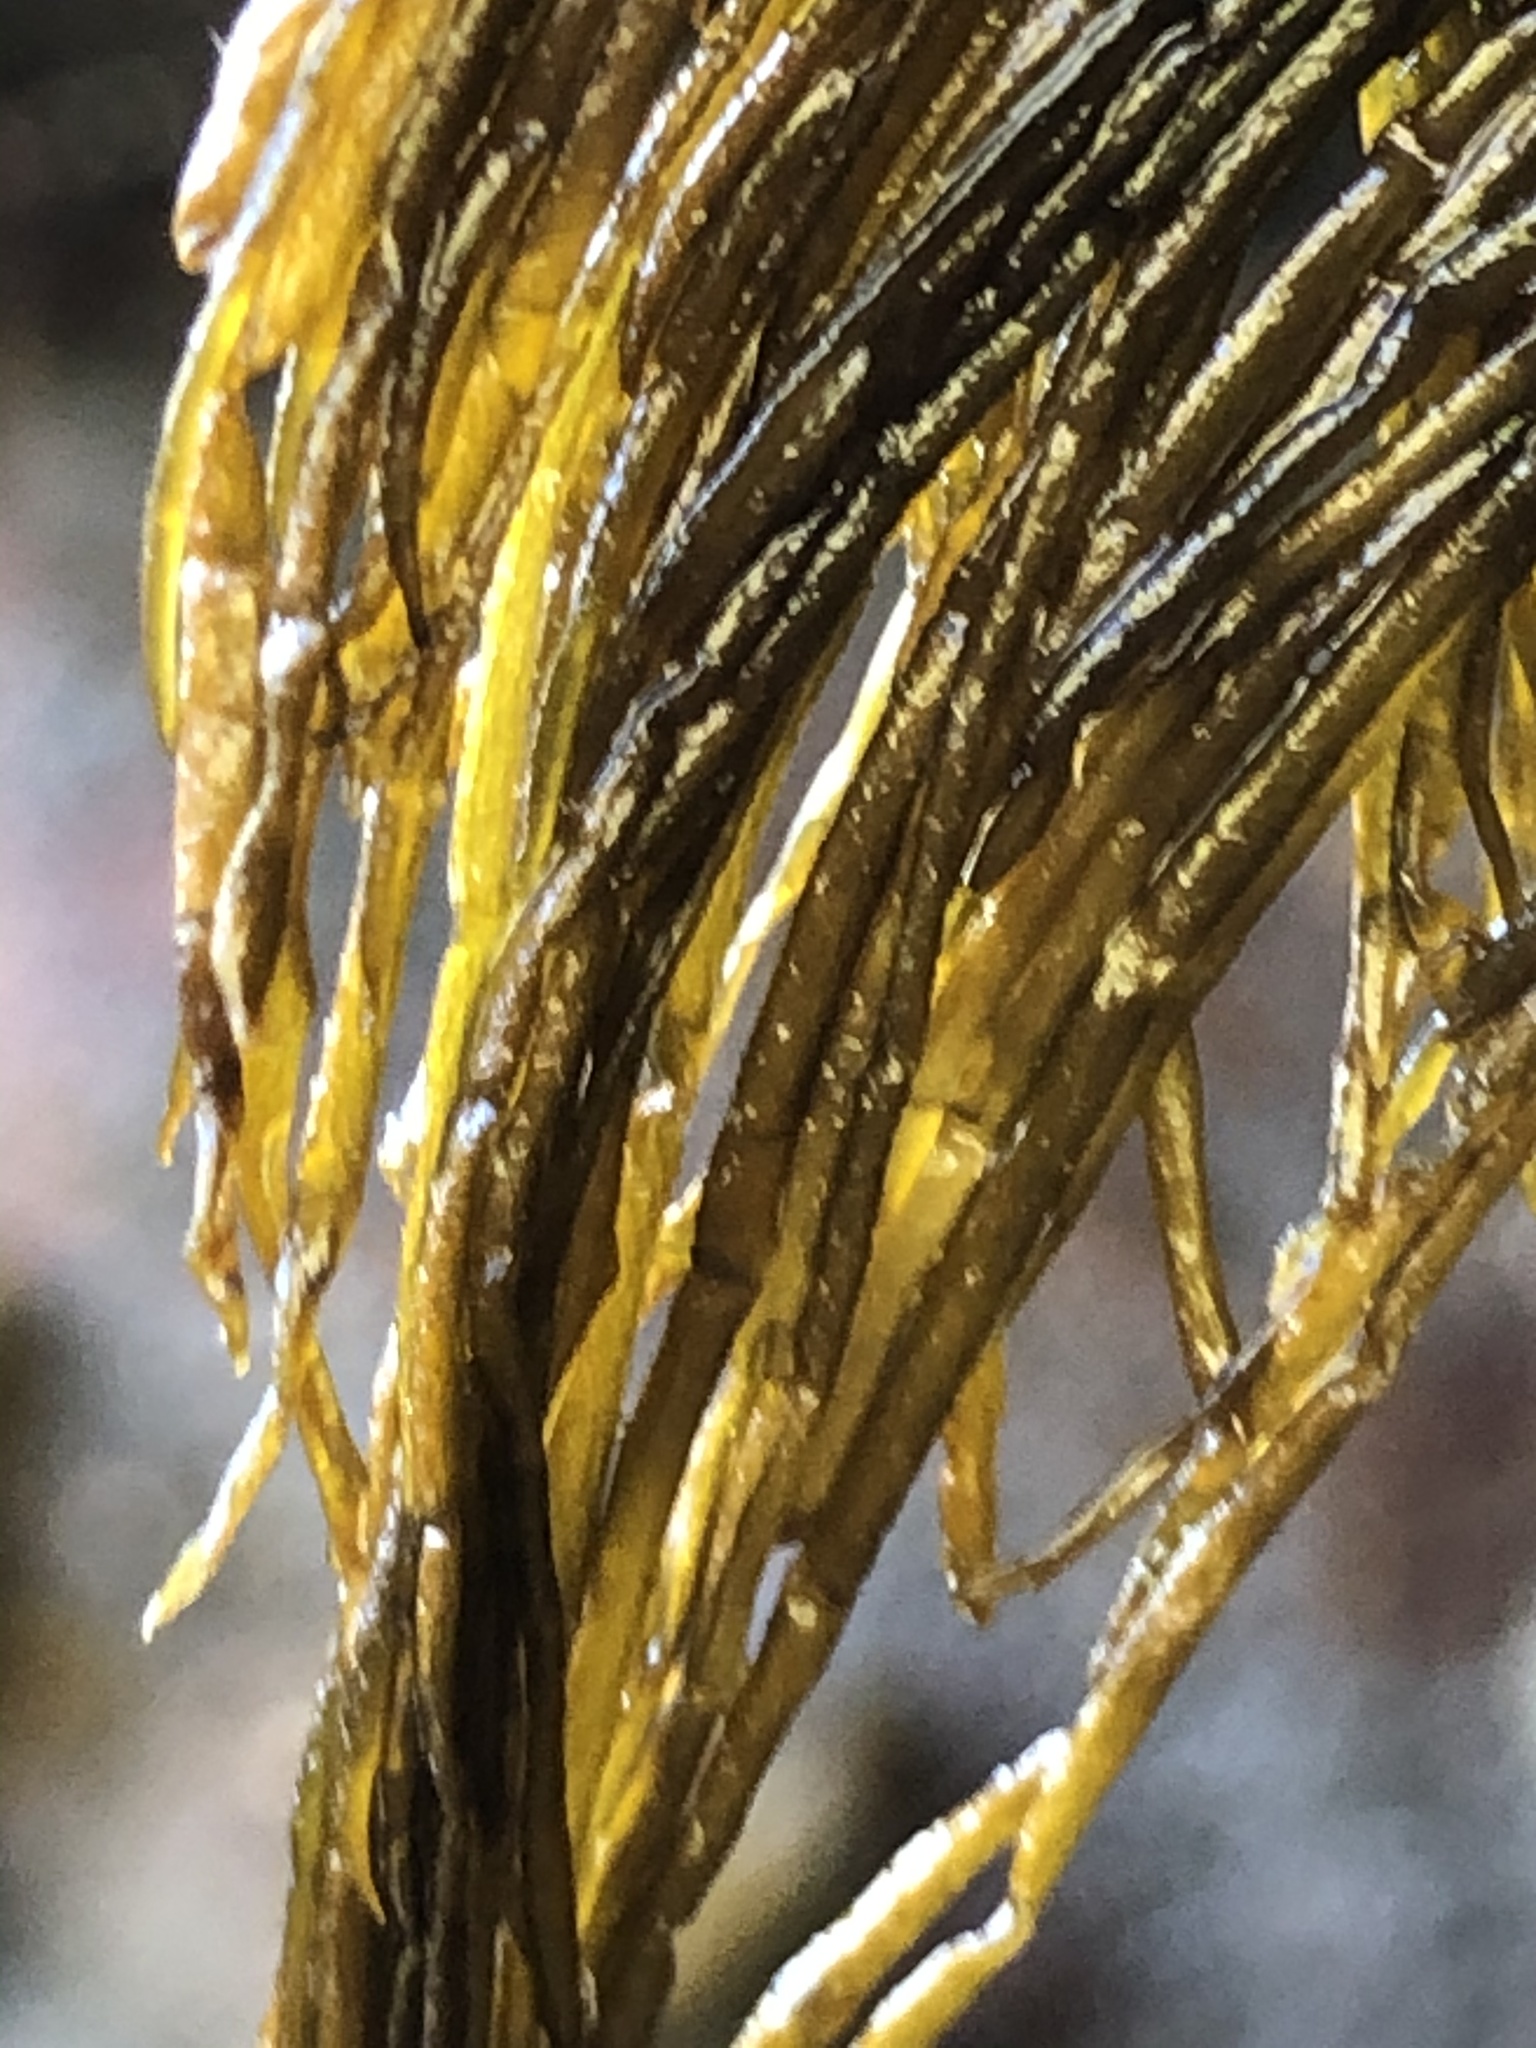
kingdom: Chromista
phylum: Ochrophyta
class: Phaeophyceae
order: Scytosiphonales
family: Scytosiphonaceae
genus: Scytosiphon
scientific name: Scytosiphon lomentaria
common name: Beanweed
